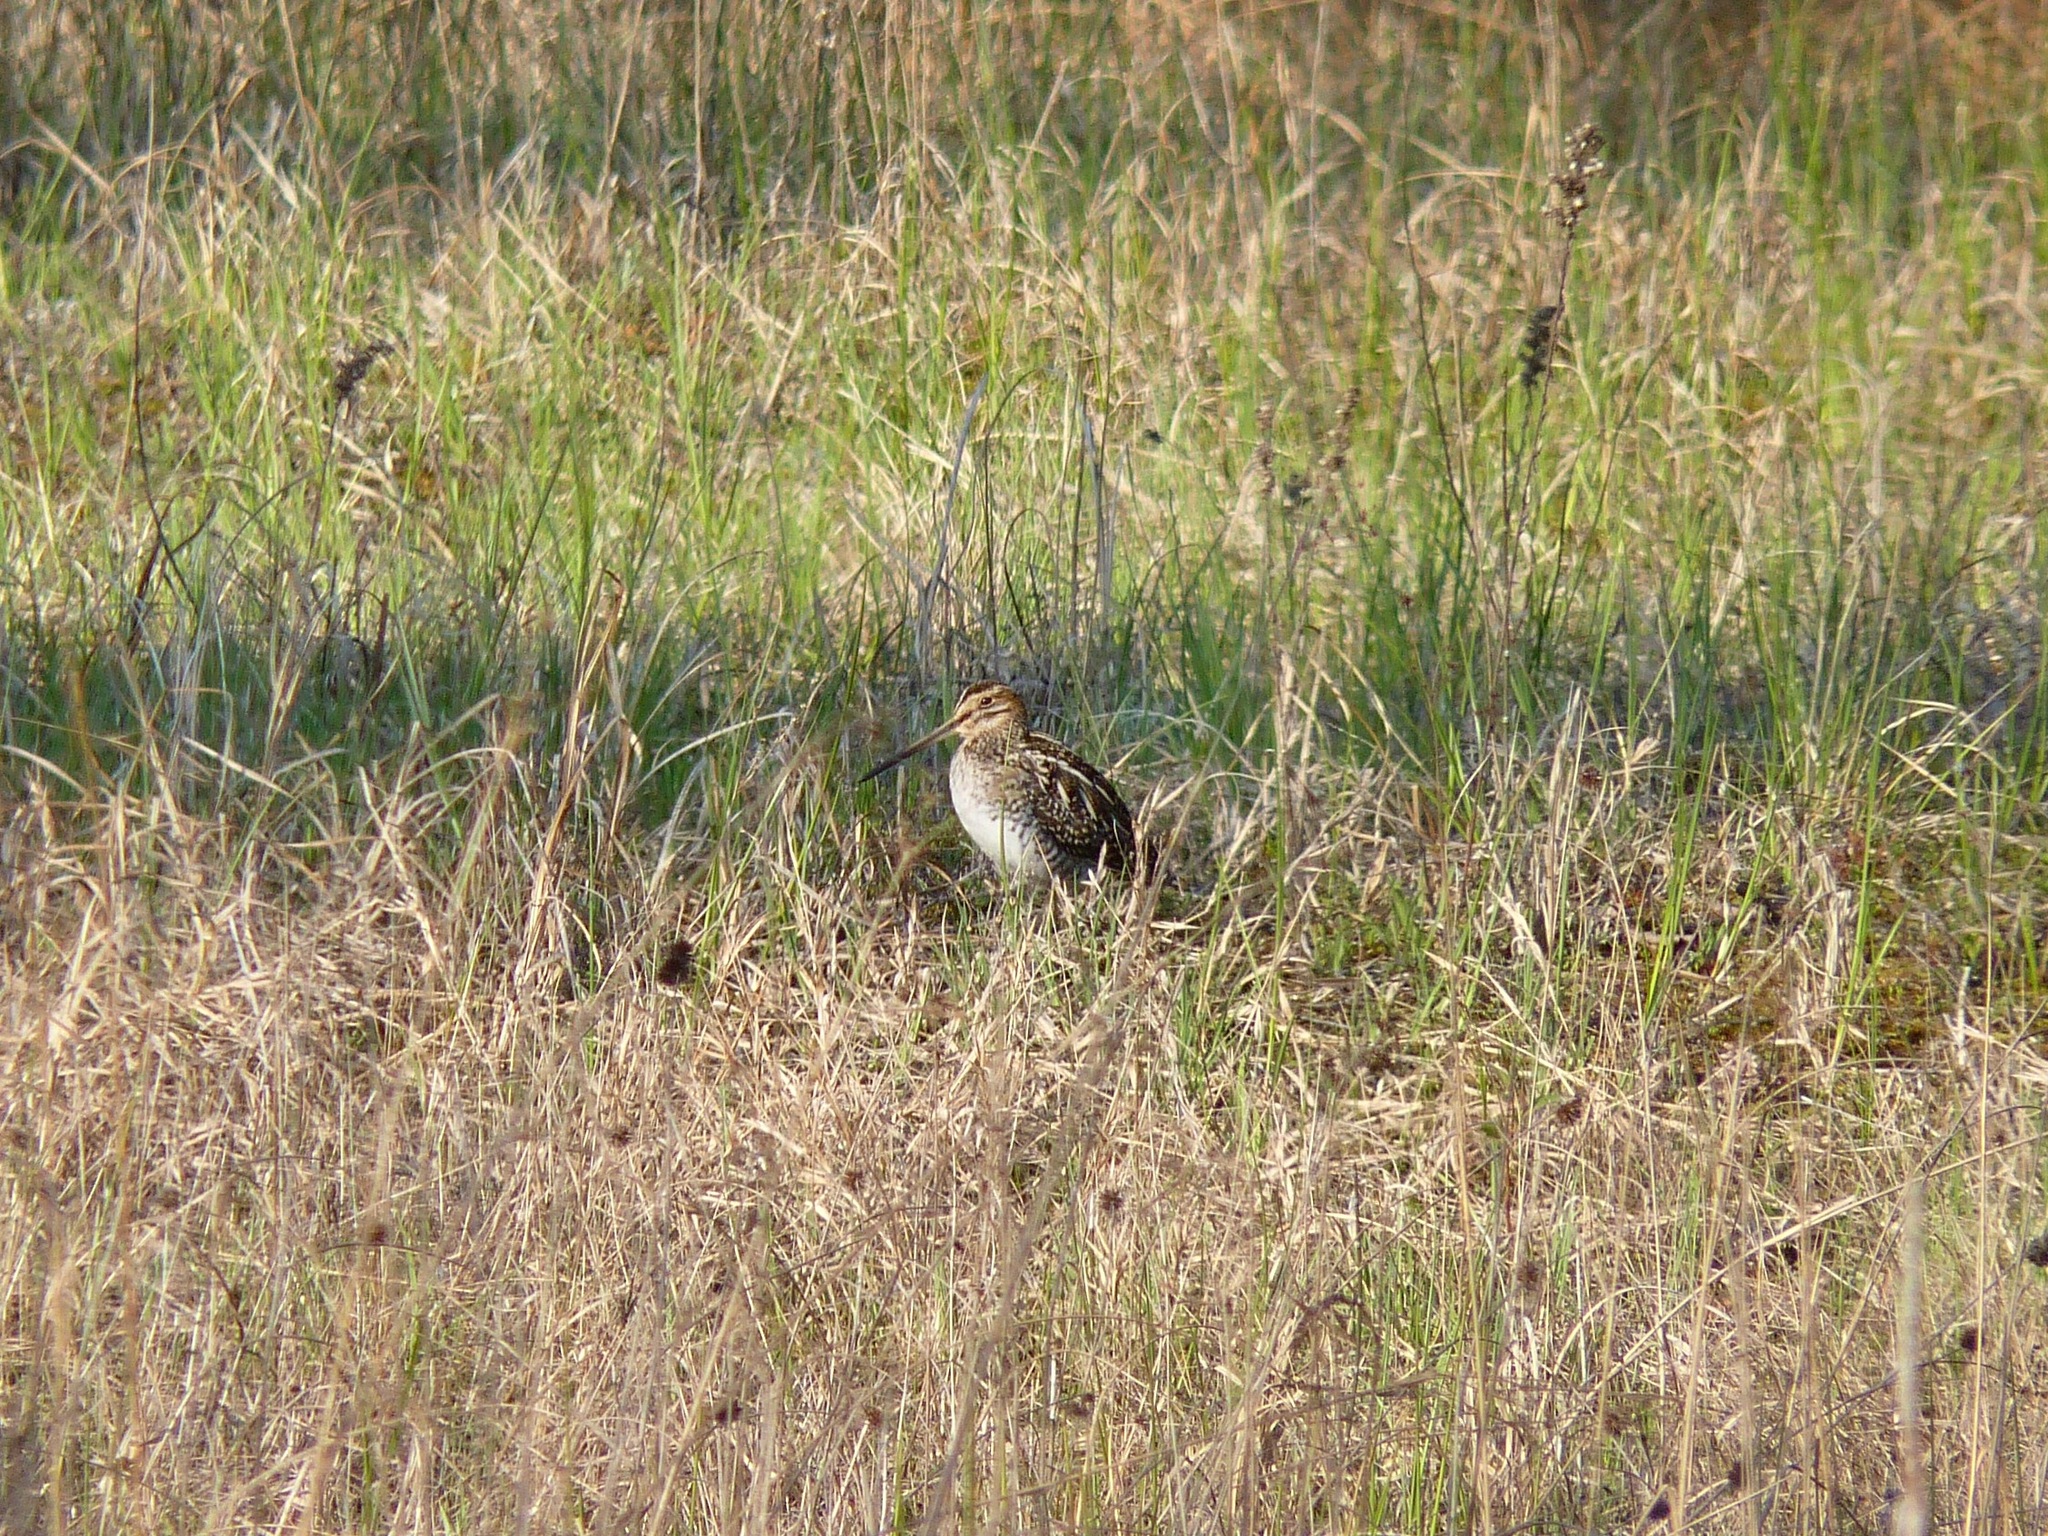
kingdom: Animalia
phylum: Chordata
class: Aves
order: Charadriiformes
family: Scolopacidae
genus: Gallinago
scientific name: Gallinago delicata
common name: Wilson's snipe
